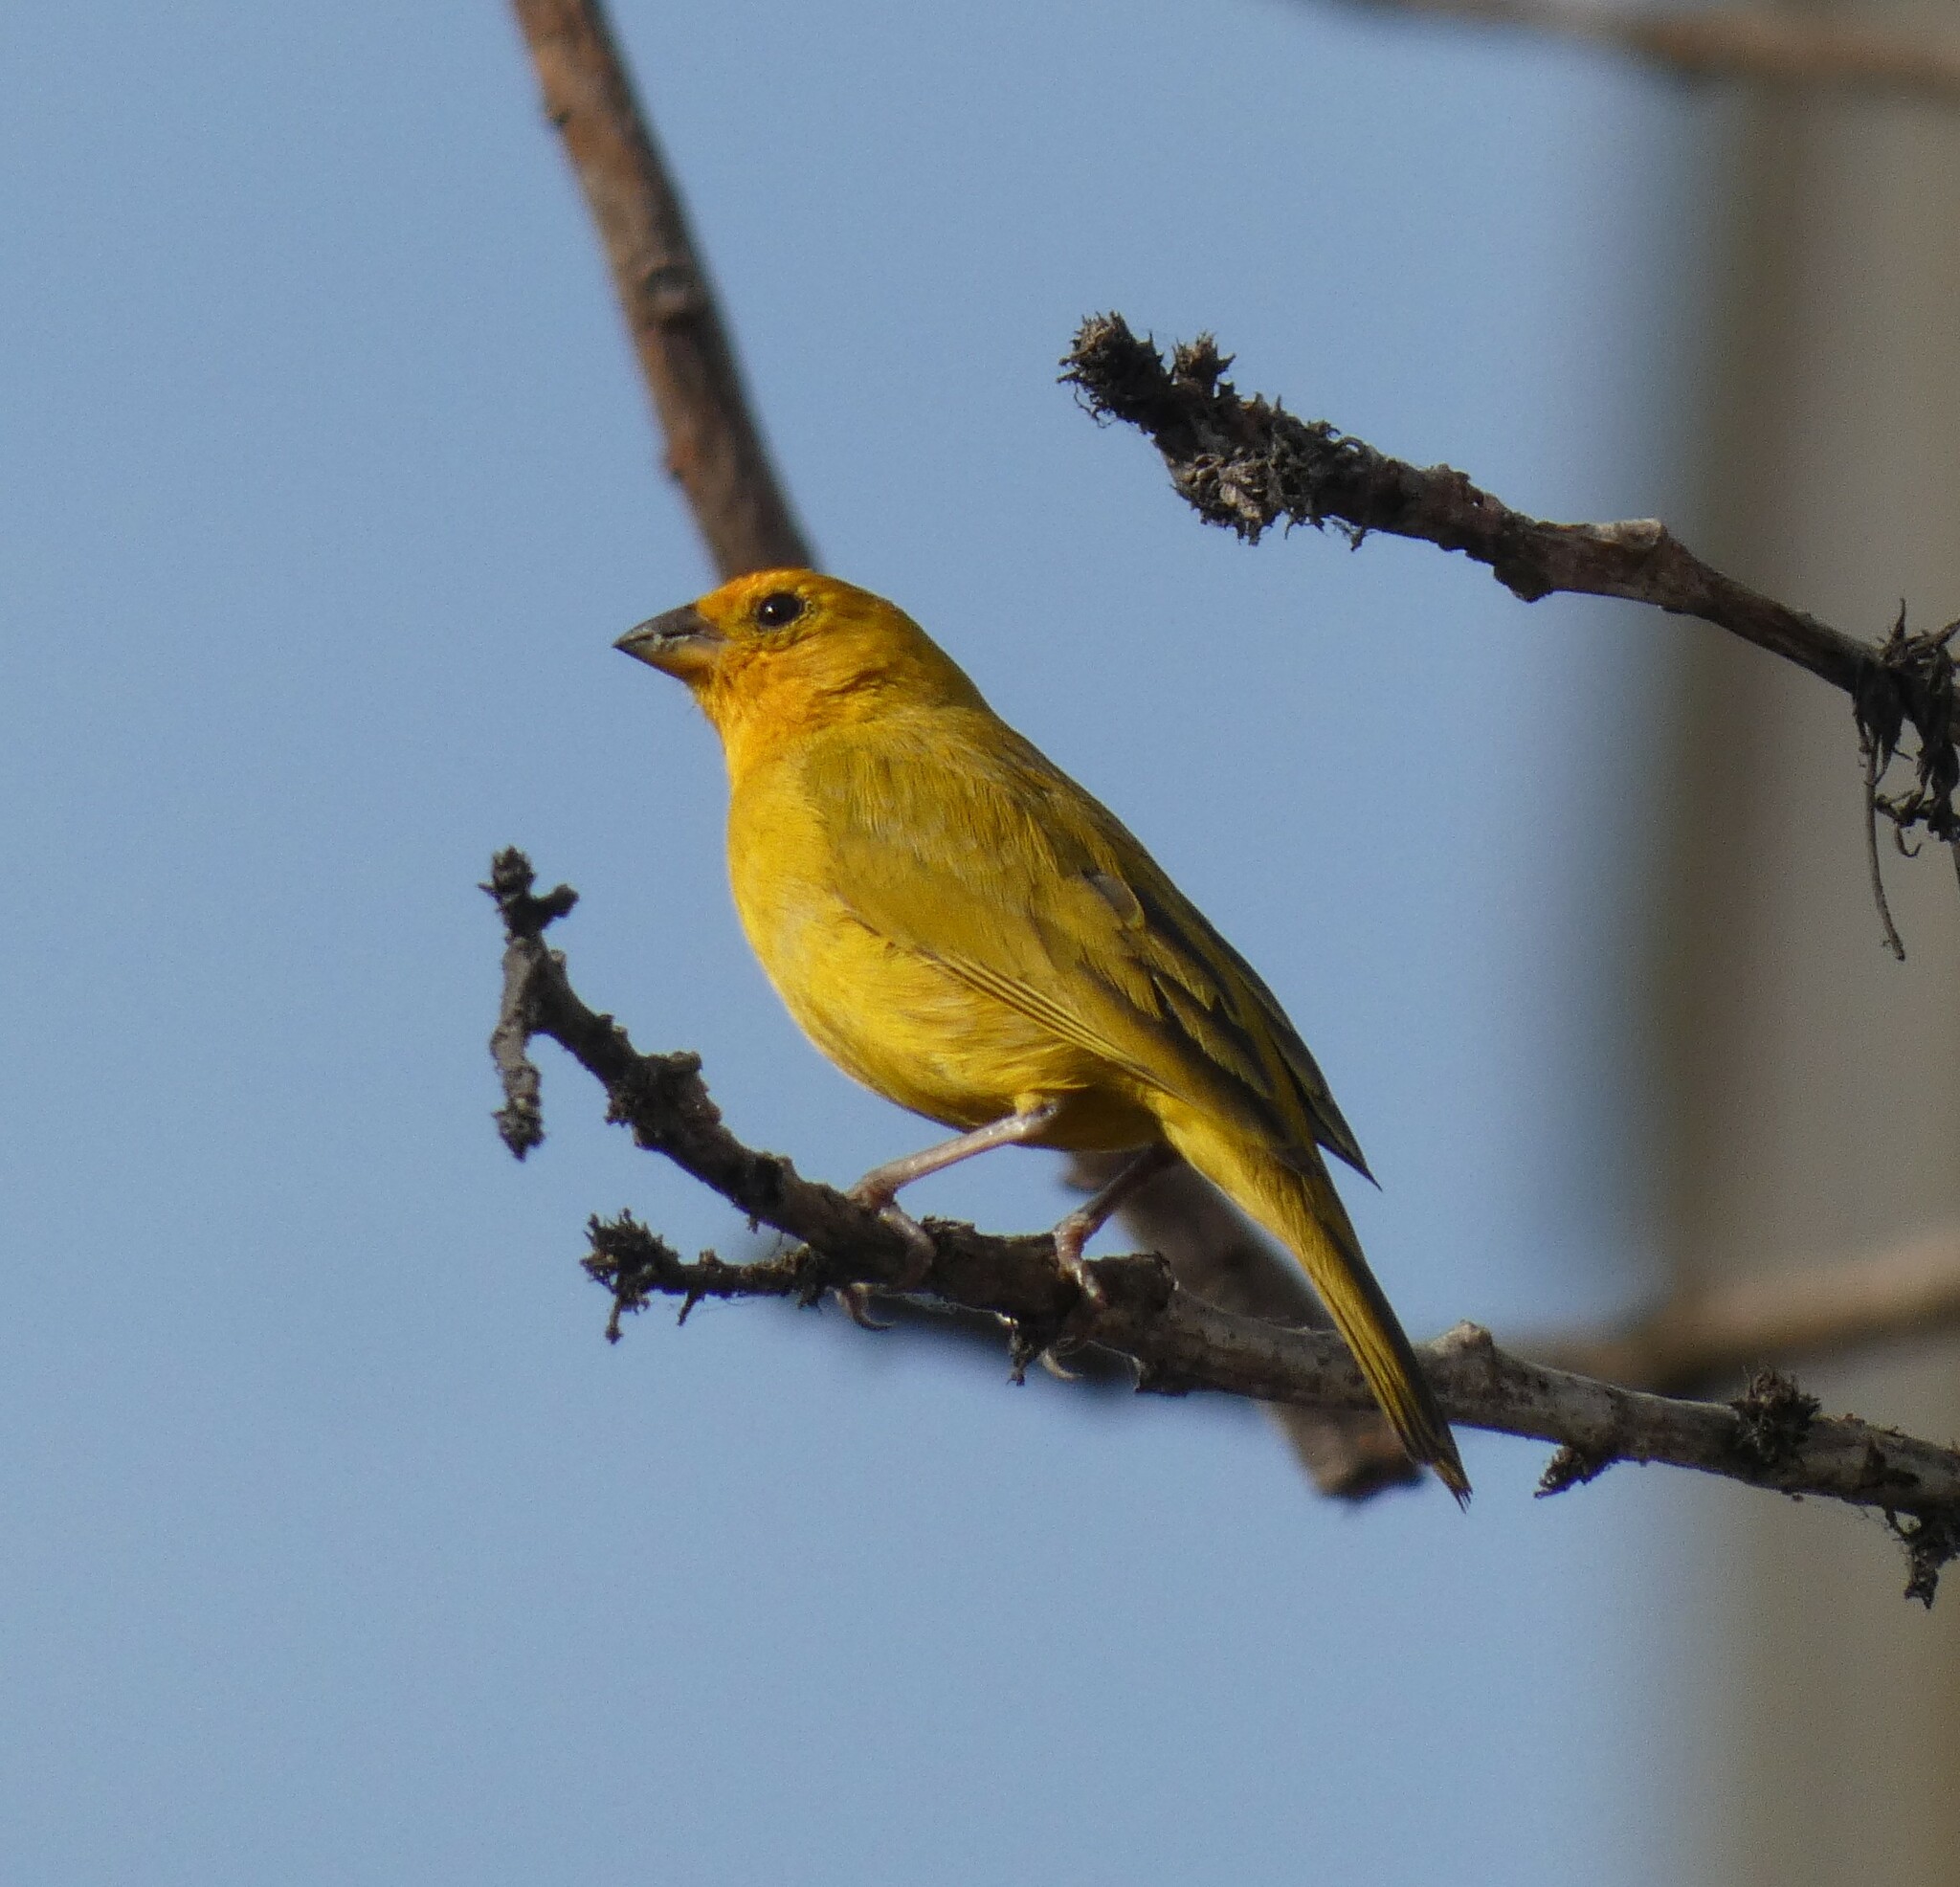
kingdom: Animalia
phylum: Chordata
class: Aves
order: Passeriformes
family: Thraupidae
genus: Sicalis
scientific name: Sicalis flaveola
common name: Saffron finch
